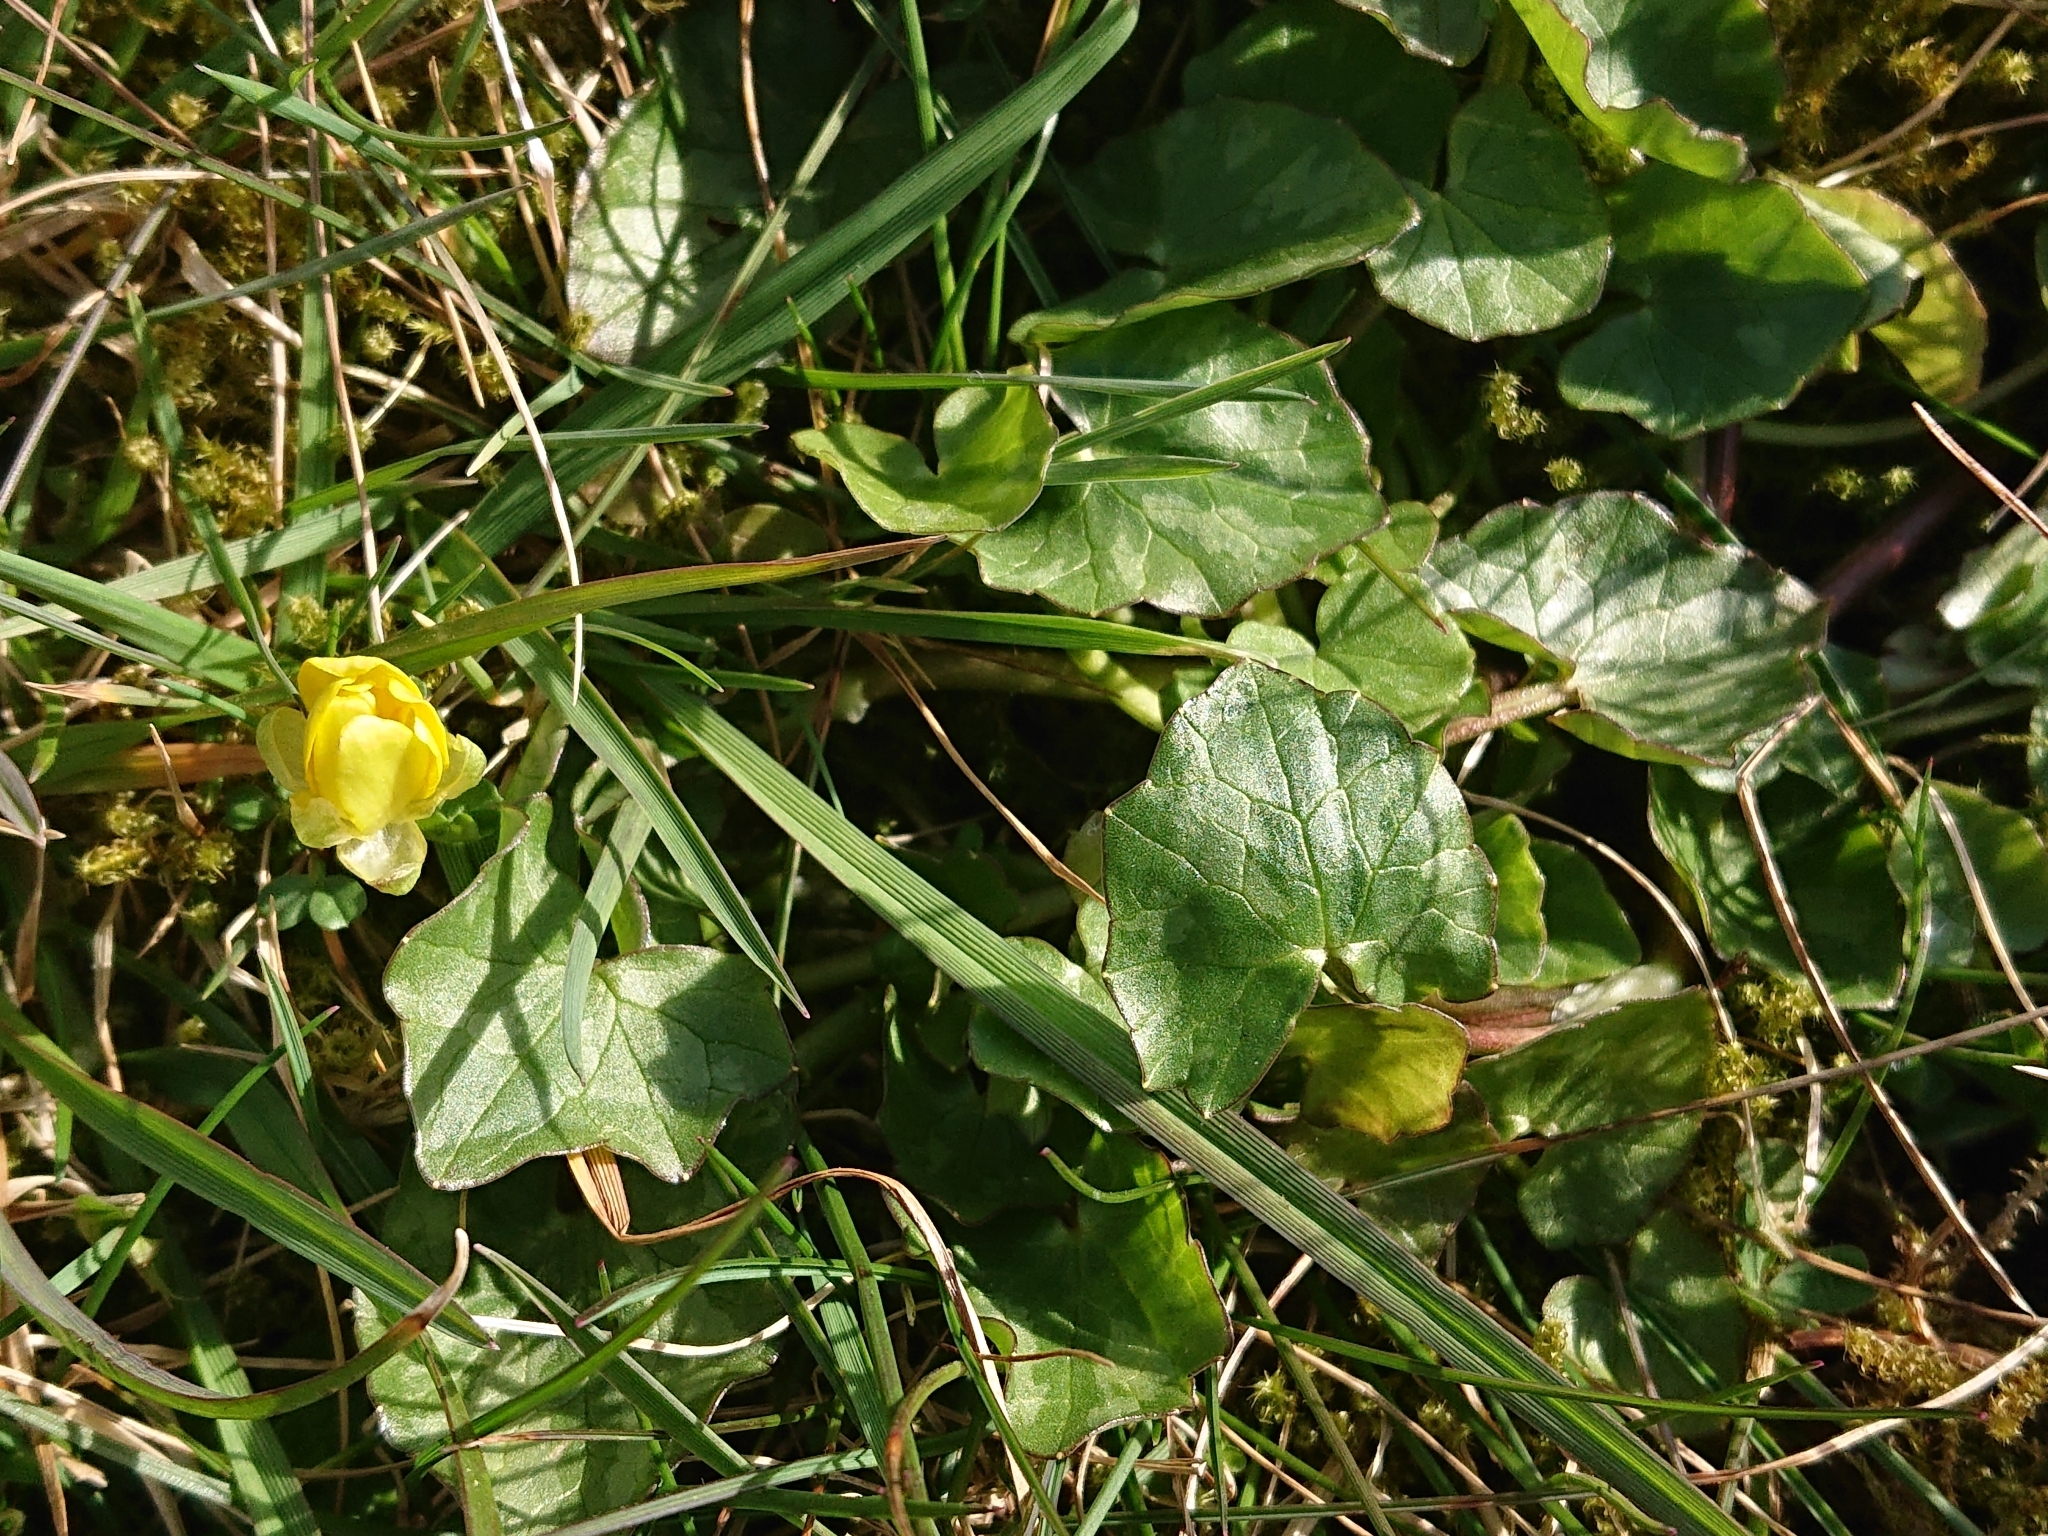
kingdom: Plantae
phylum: Tracheophyta
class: Magnoliopsida
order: Ranunculales
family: Ranunculaceae
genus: Ficaria
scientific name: Ficaria verna
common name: Lesser celandine
